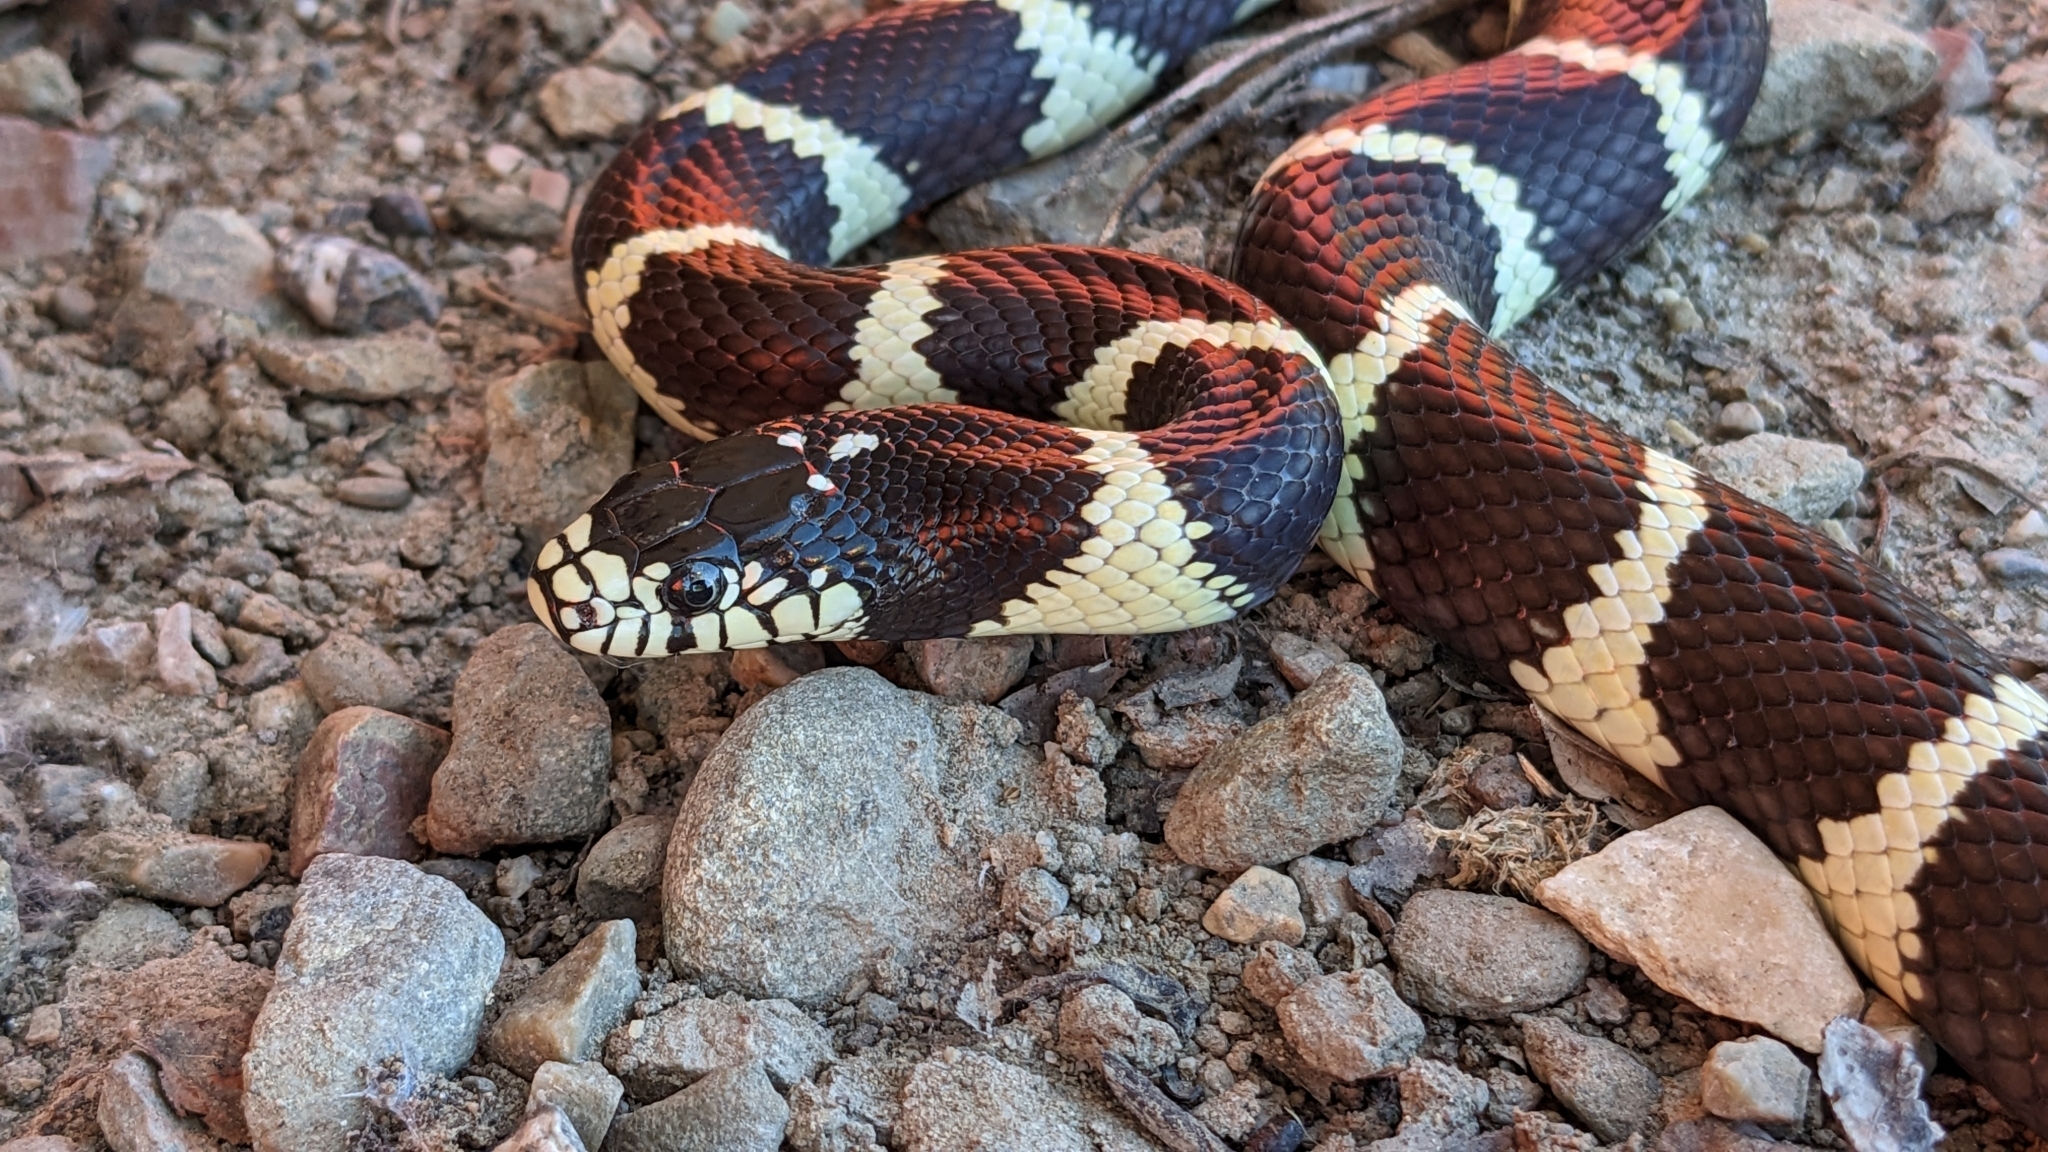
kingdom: Animalia
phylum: Chordata
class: Squamata
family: Colubridae
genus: Lampropeltis
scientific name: Lampropeltis californiae
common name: California kingsnake
